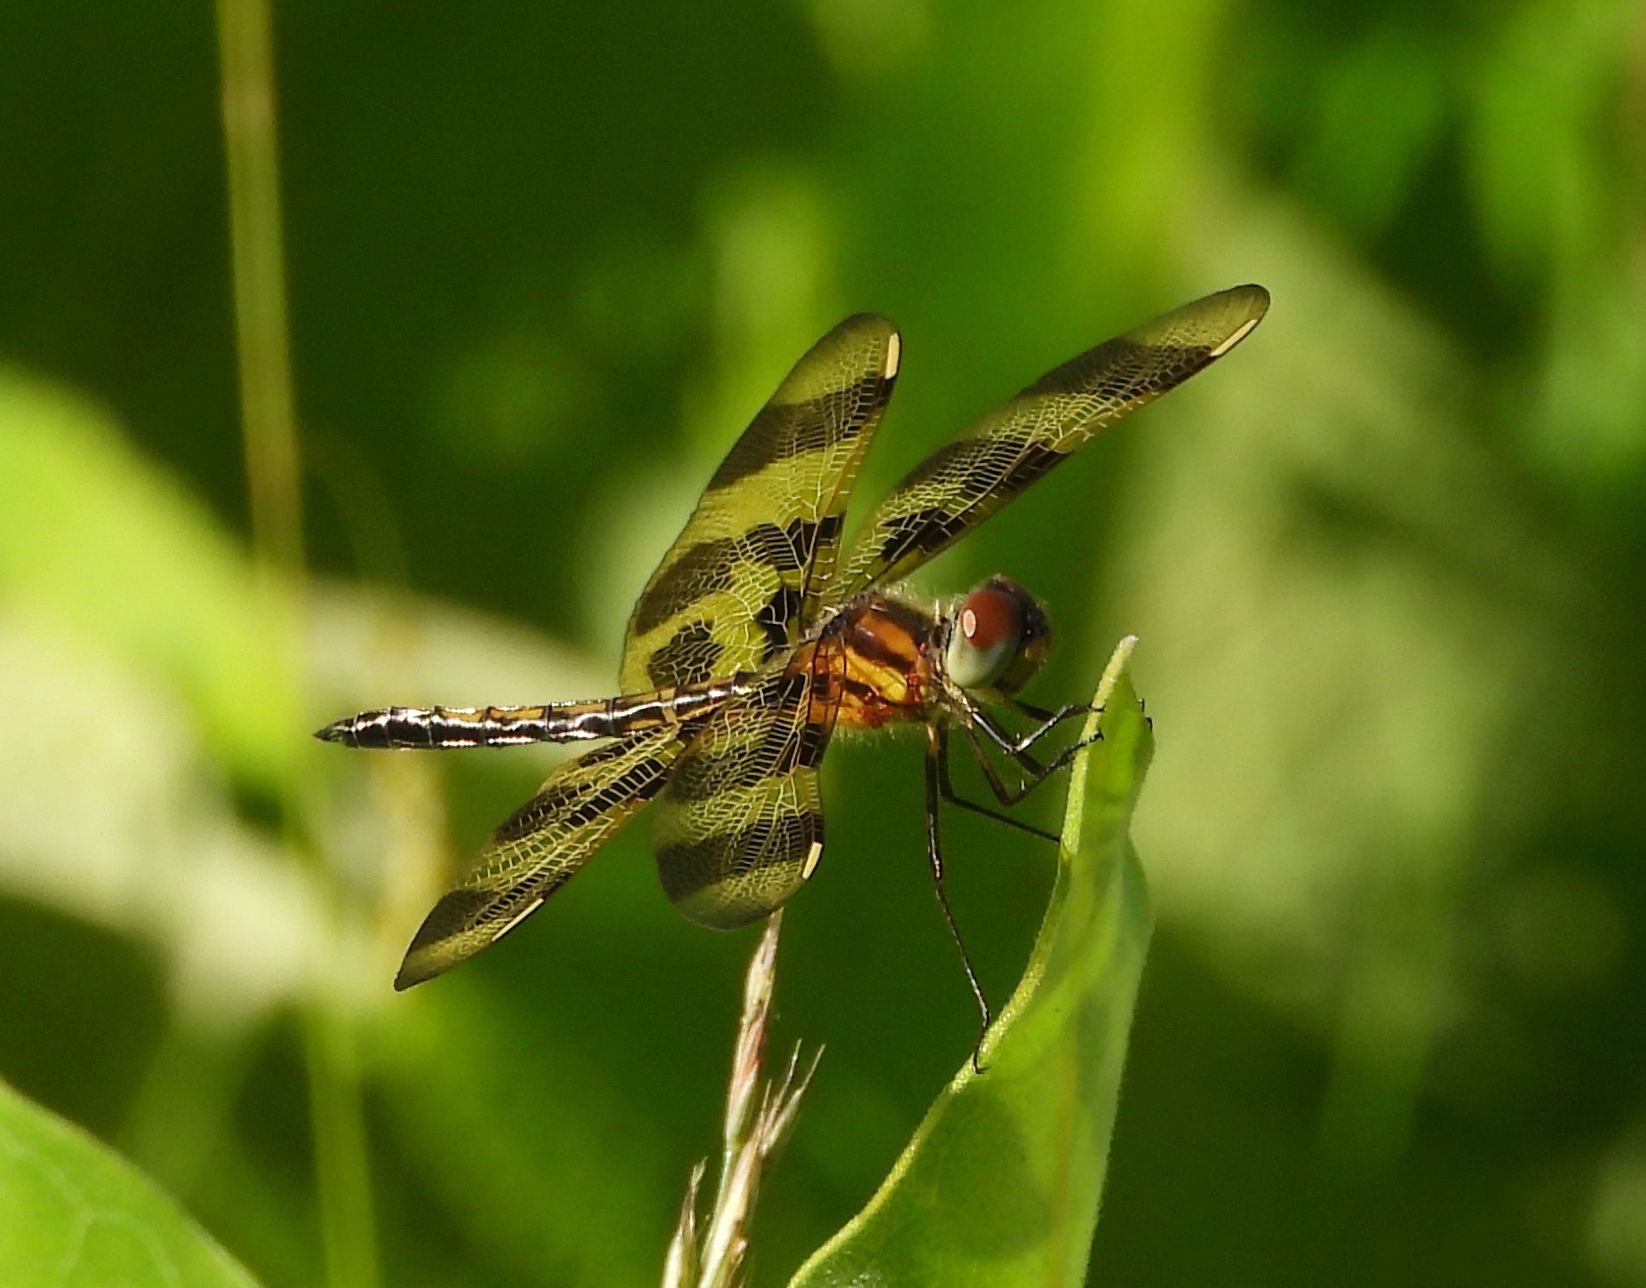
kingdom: Animalia
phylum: Arthropoda
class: Insecta
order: Odonata
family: Libellulidae
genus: Celithemis
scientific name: Celithemis eponina
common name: Halloween pennant
